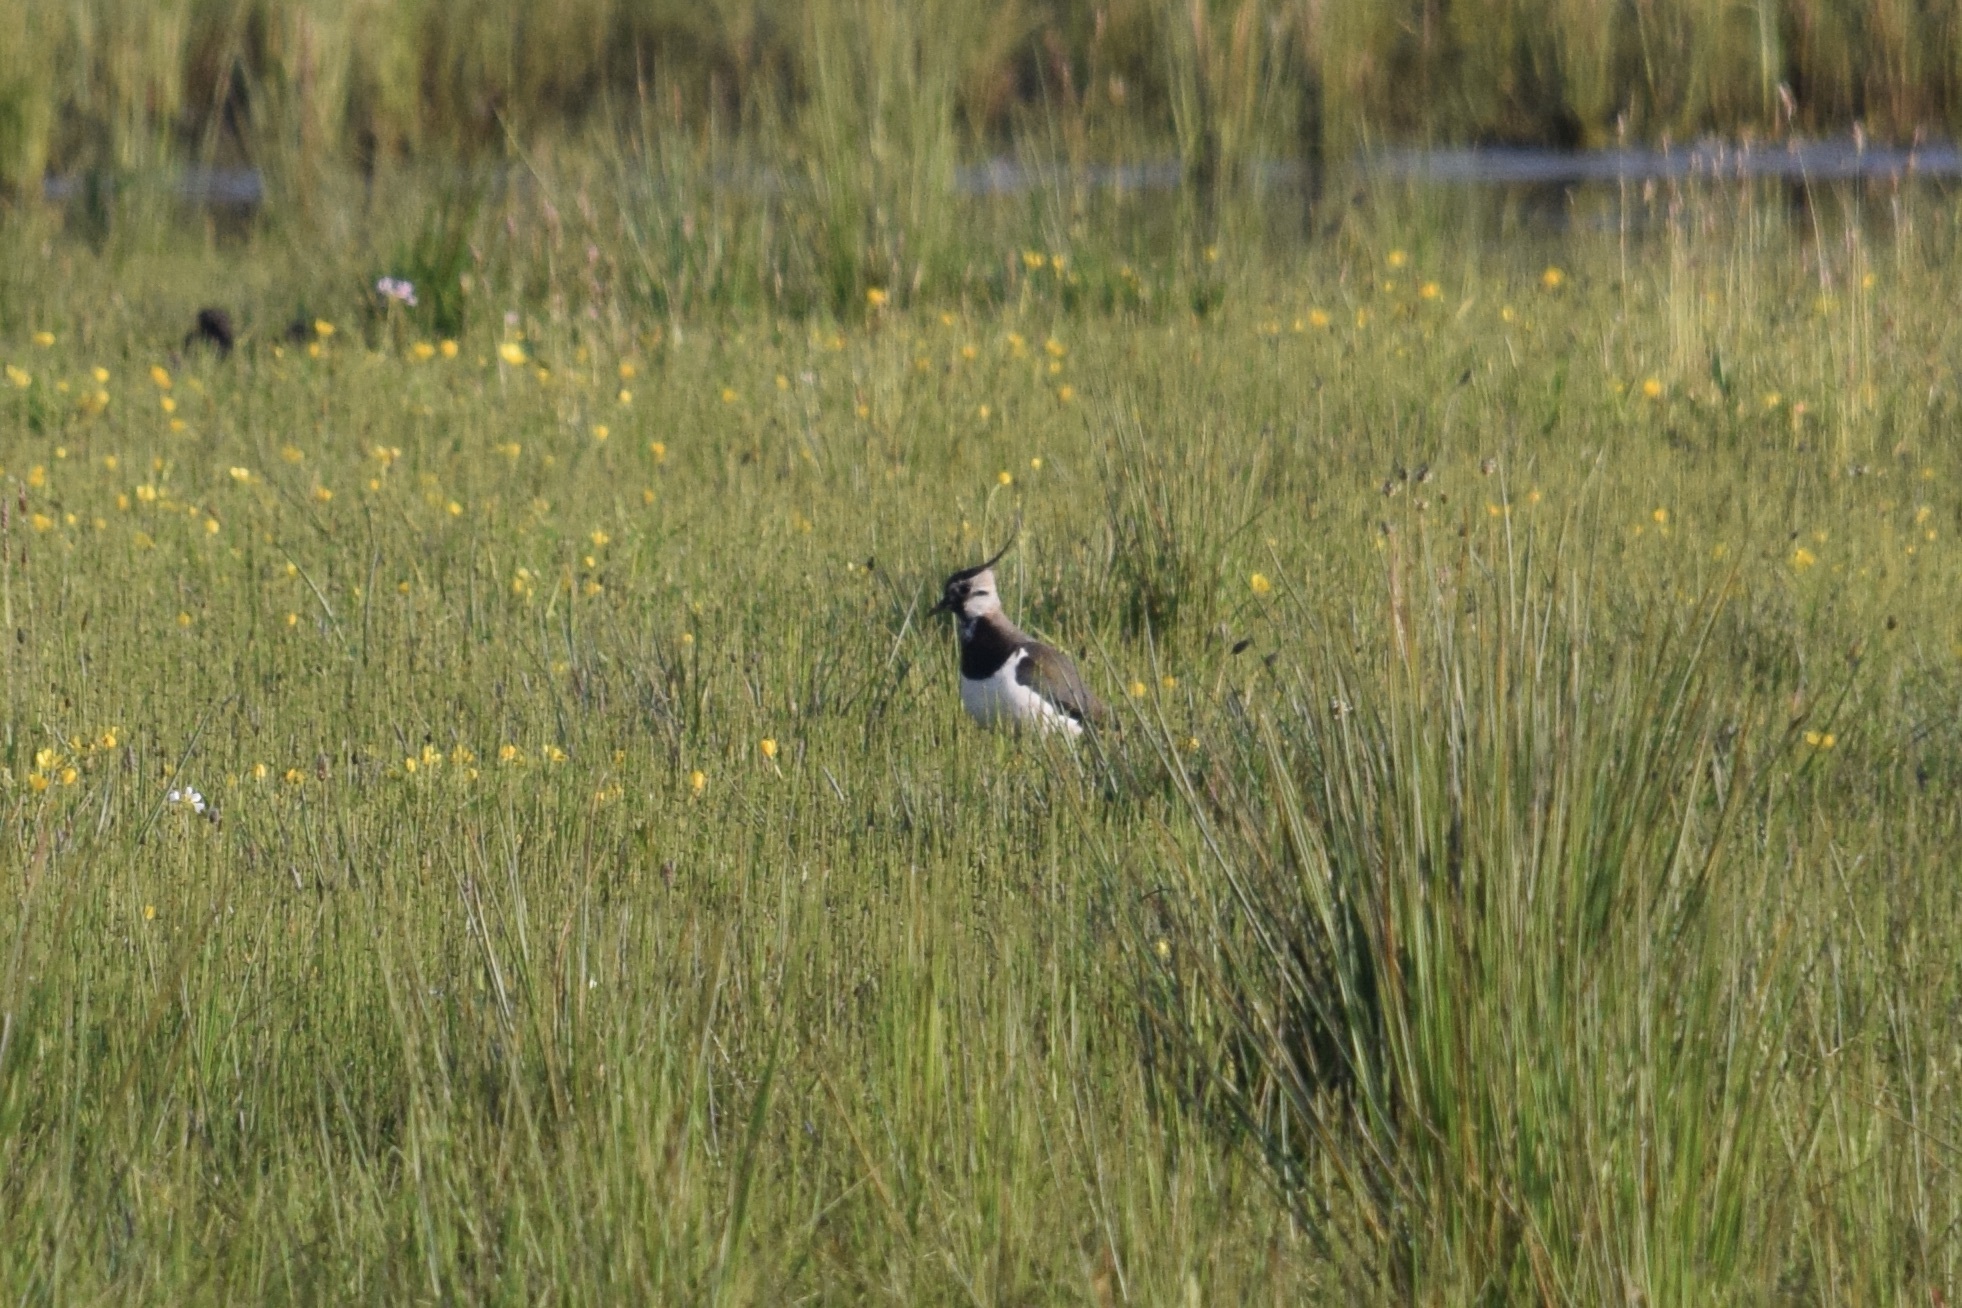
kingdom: Animalia
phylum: Chordata
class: Aves
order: Charadriiformes
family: Charadriidae
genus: Vanellus
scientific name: Vanellus vanellus
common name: Northern lapwing
